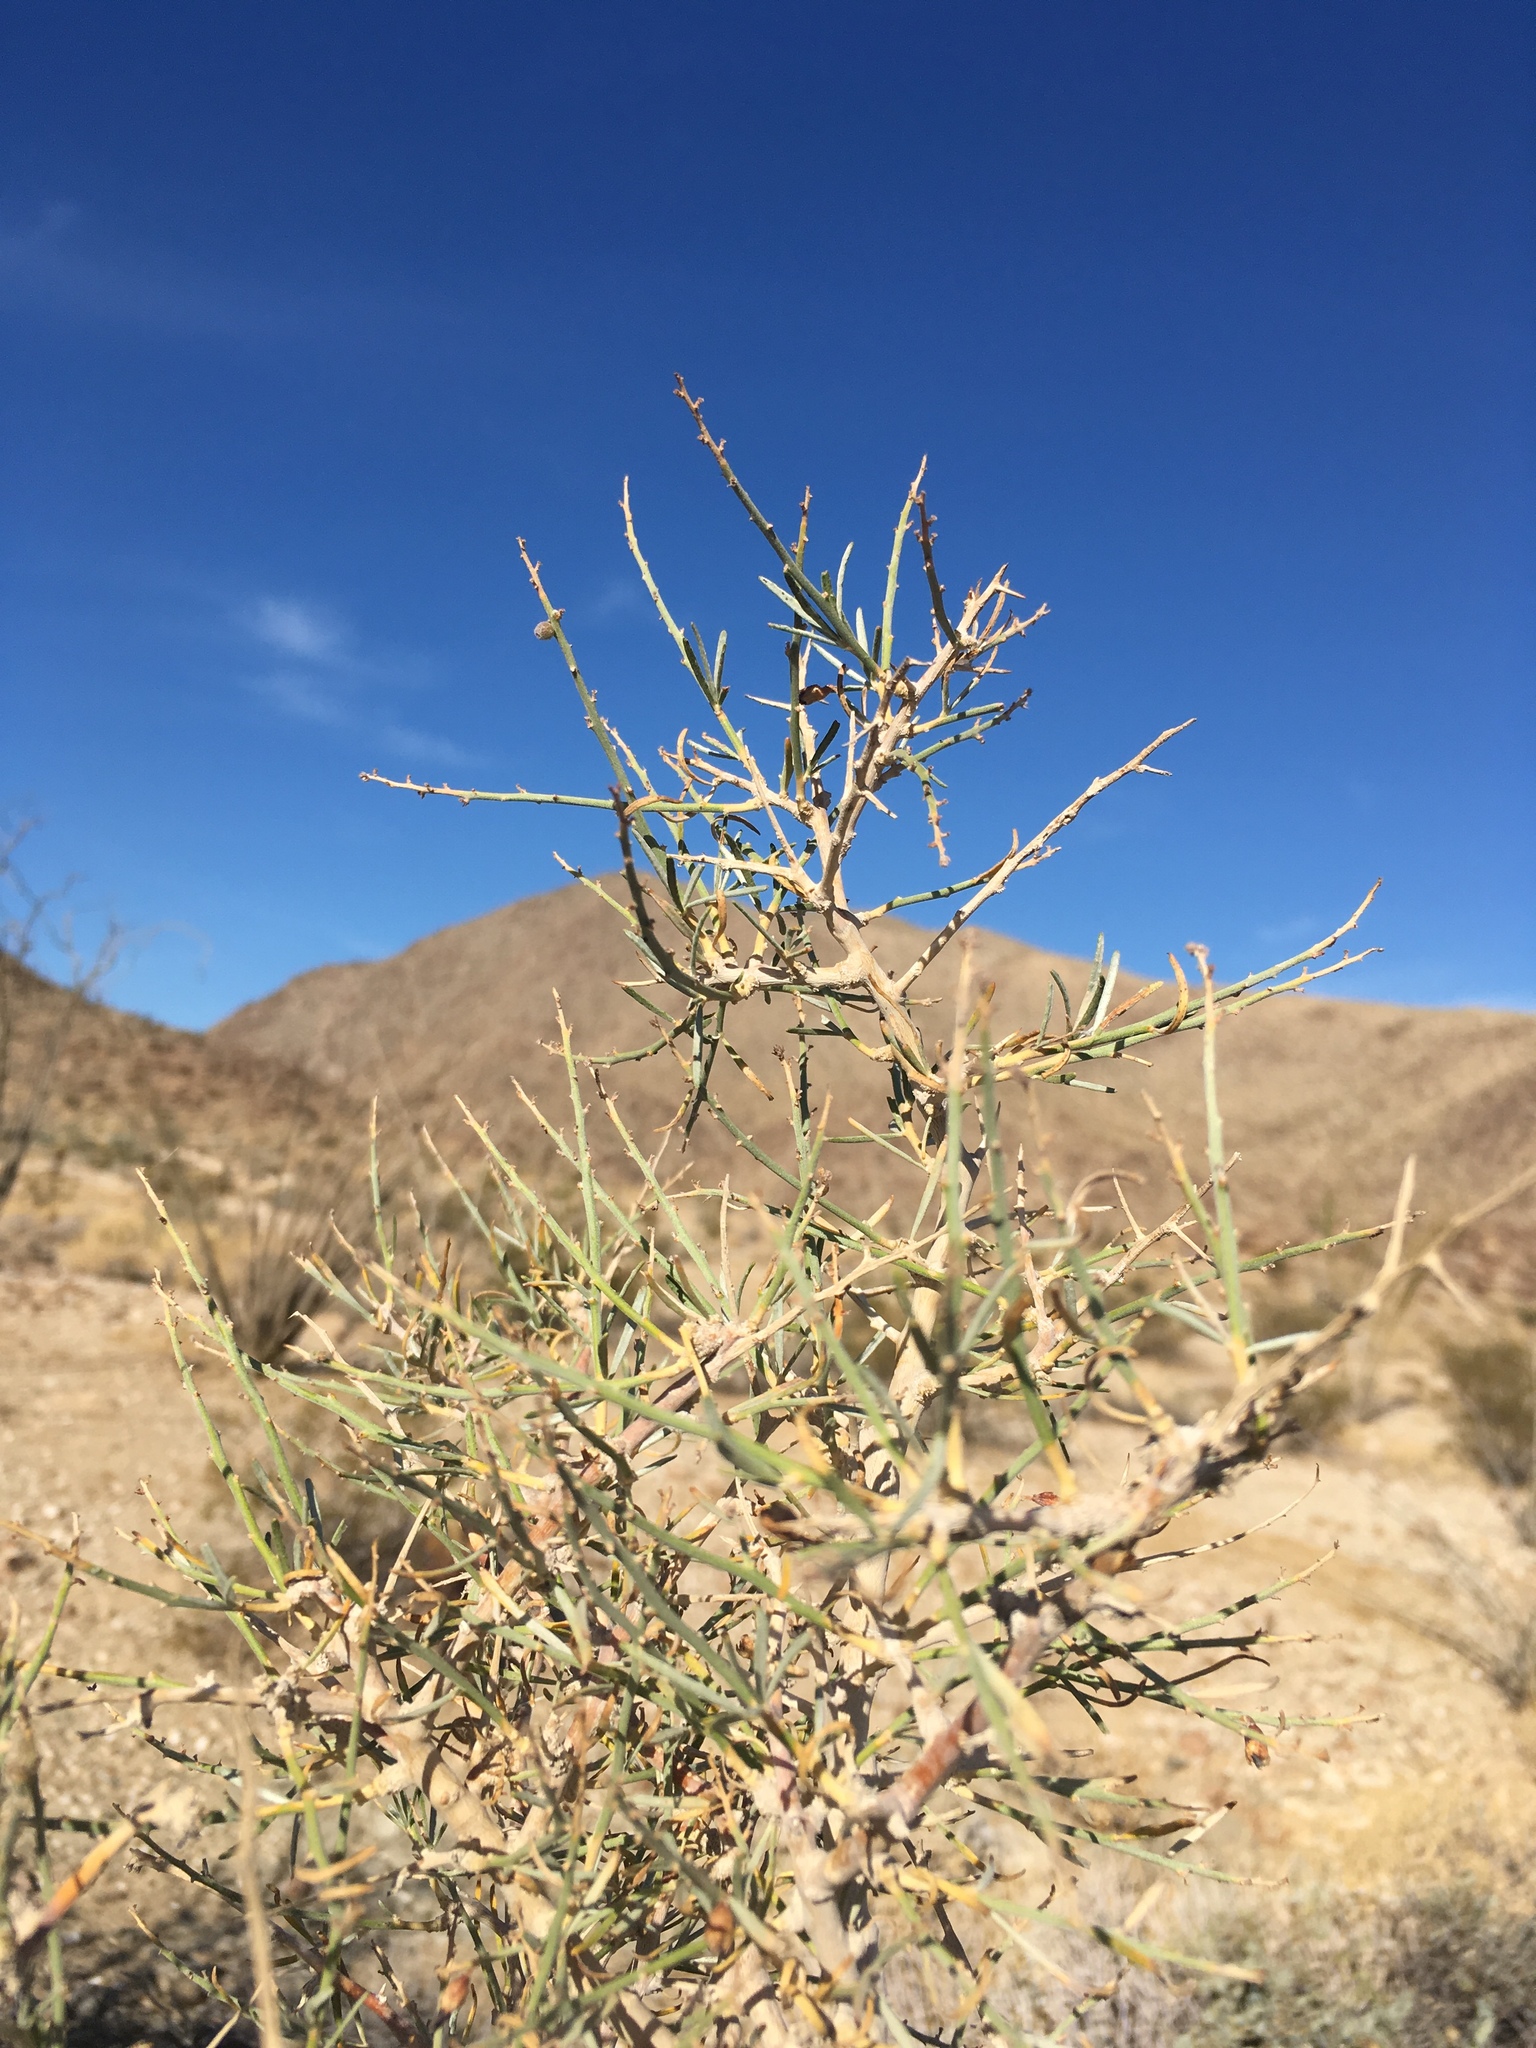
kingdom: Plantae
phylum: Tracheophyta
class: Magnoliopsida
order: Fabales
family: Fabaceae
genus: Psorothamnus
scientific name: Psorothamnus schottii
